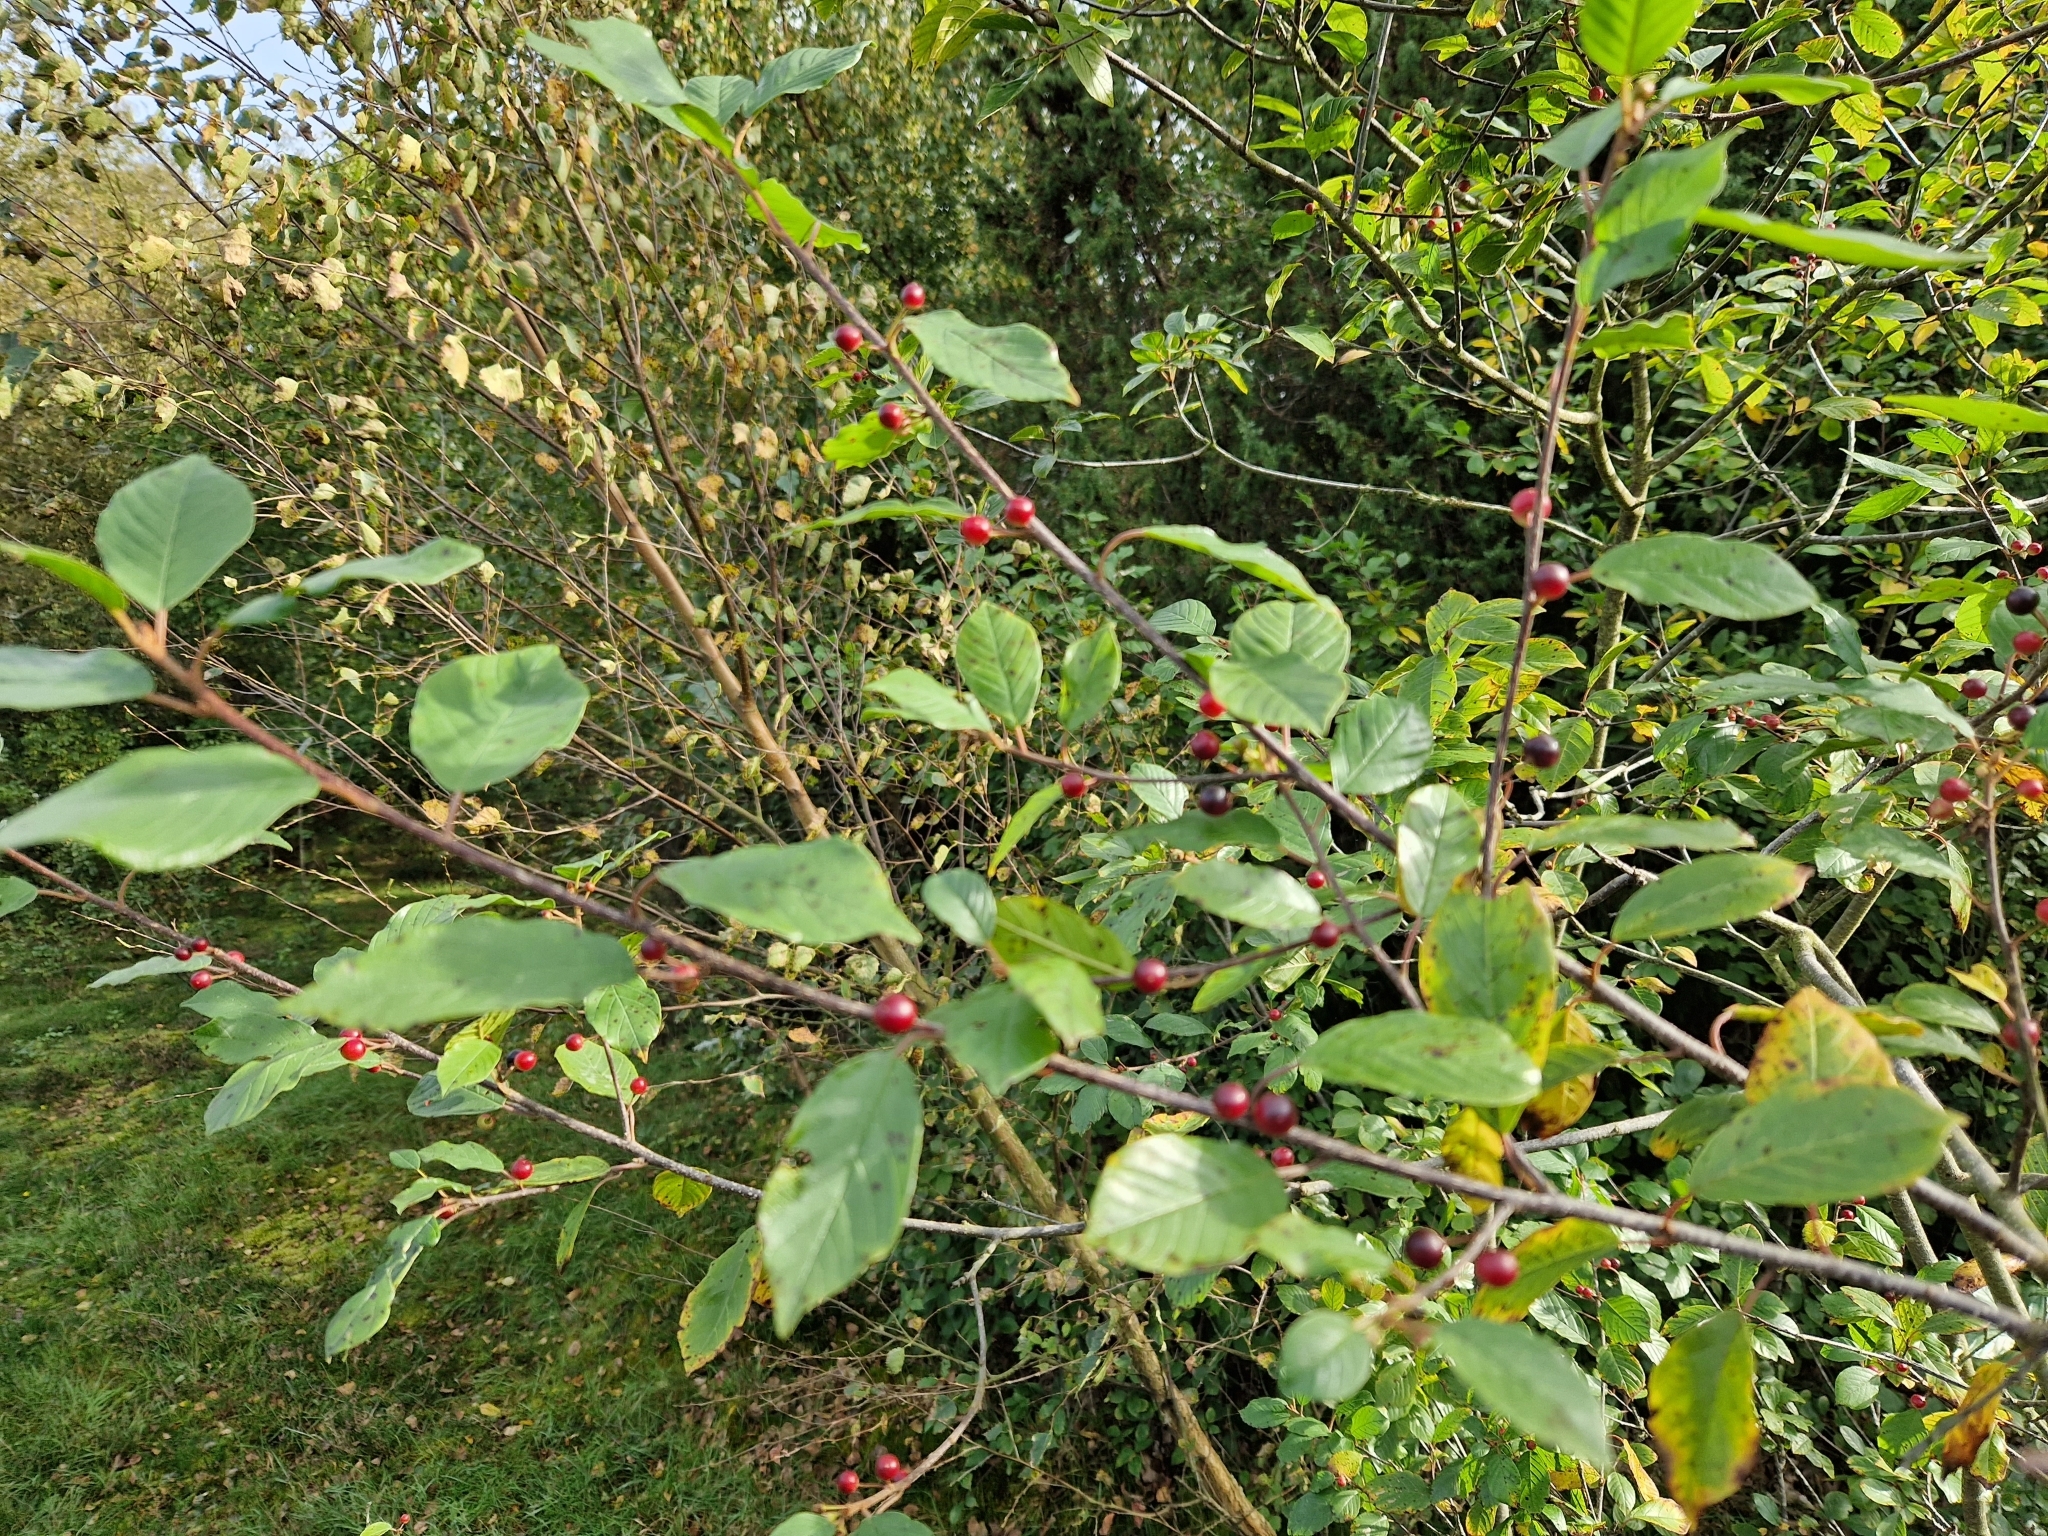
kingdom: Plantae
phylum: Tracheophyta
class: Magnoliopsida
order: Rosales
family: Rhamnaceae
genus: Frangula
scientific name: Frangula alnus
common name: Alder buckthorn
